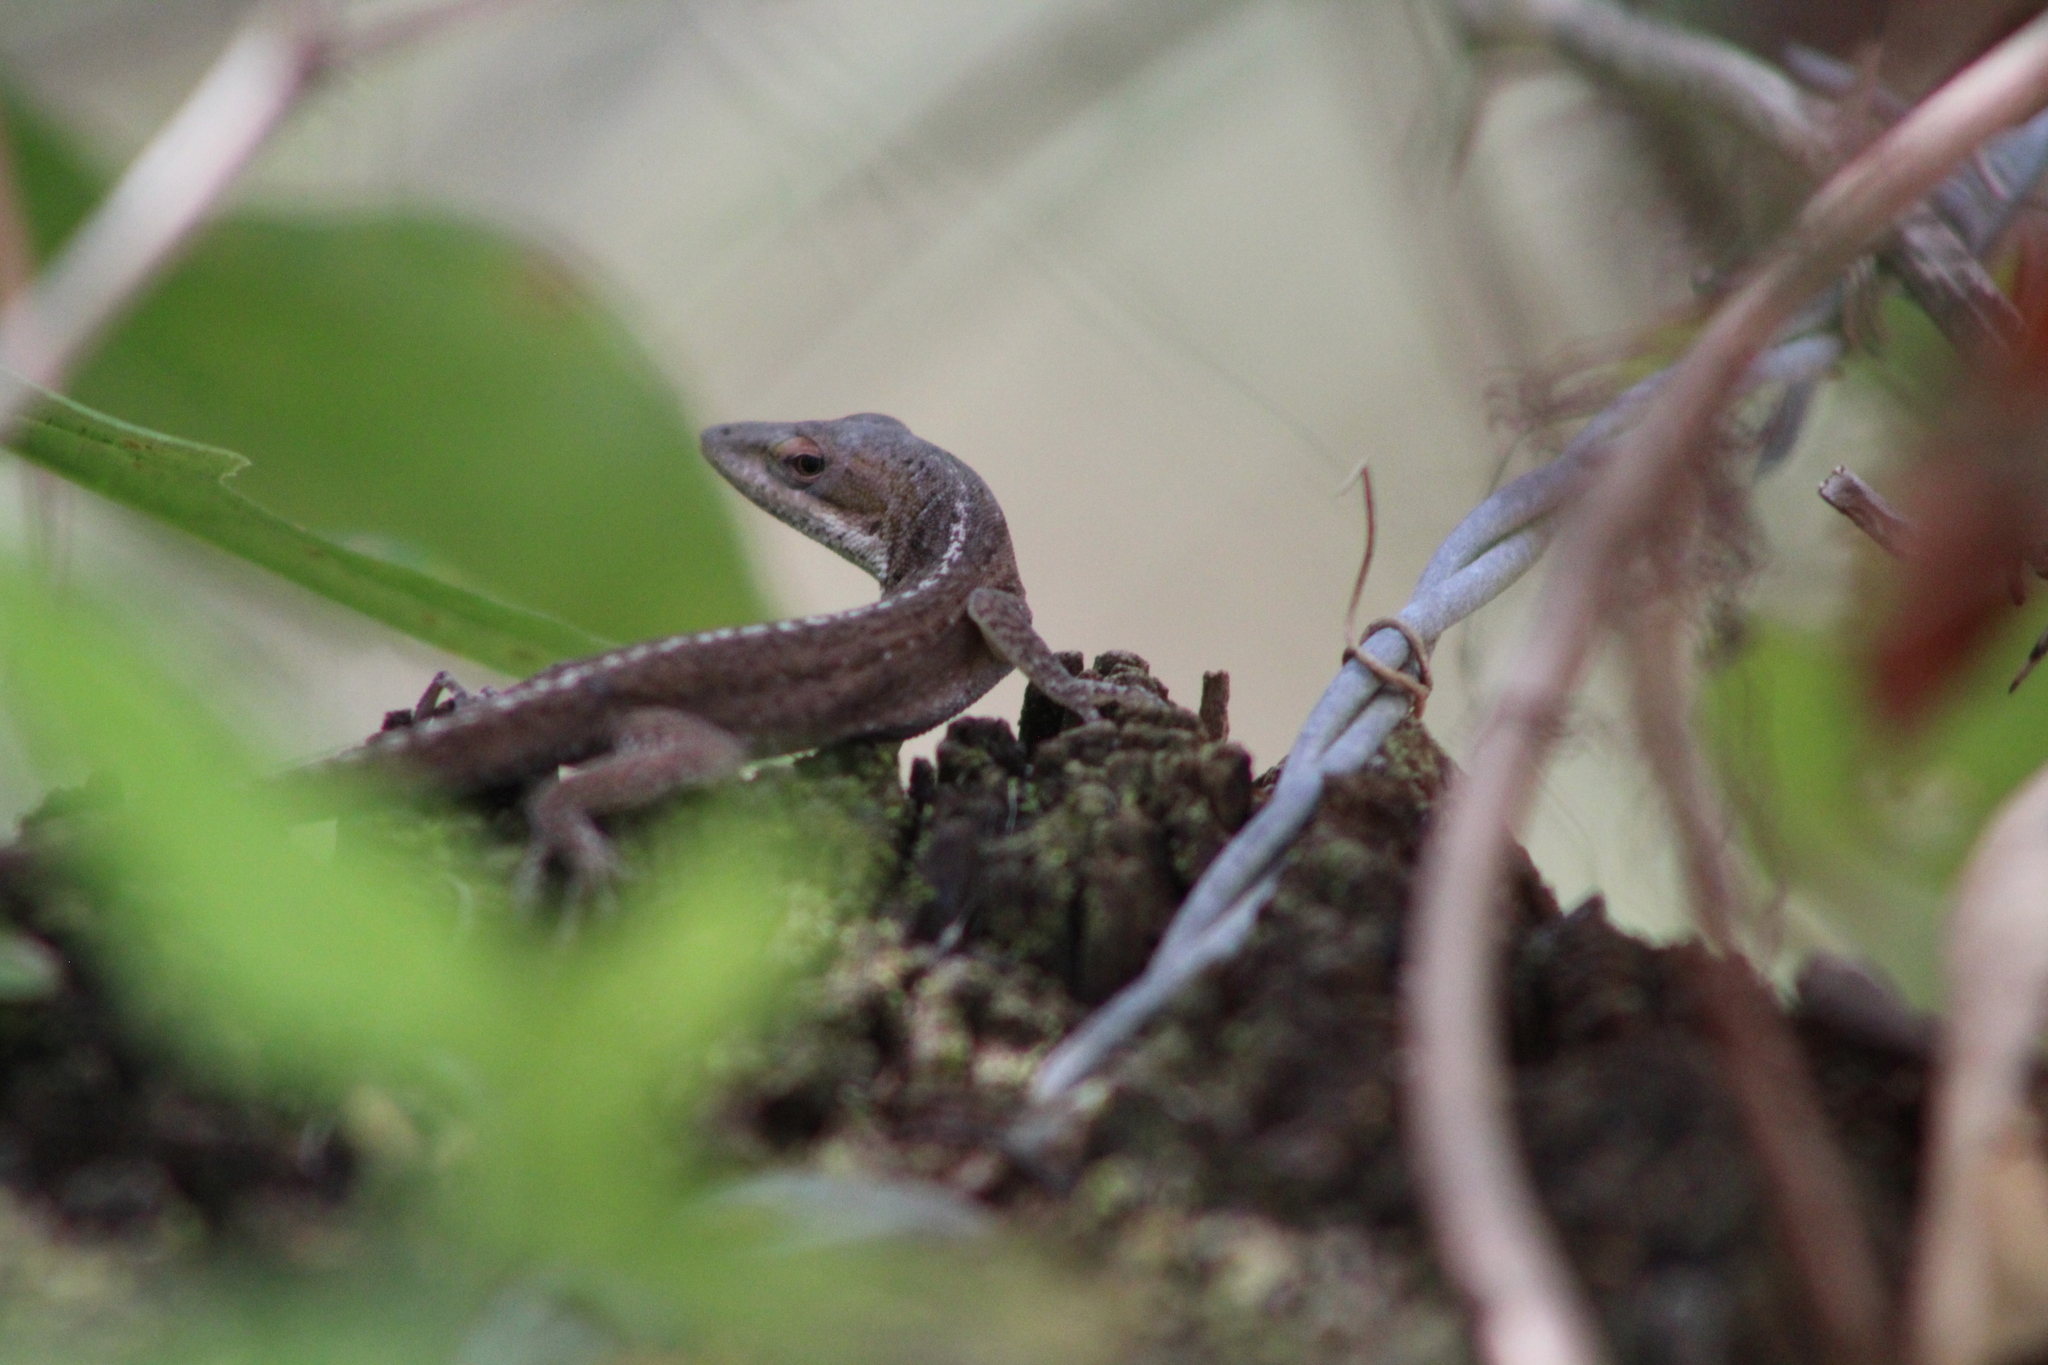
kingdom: Animalia
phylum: Chordata
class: Squamata
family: Dactyloidae
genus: Anolis
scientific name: Anolis carolinensis
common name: Green anole
